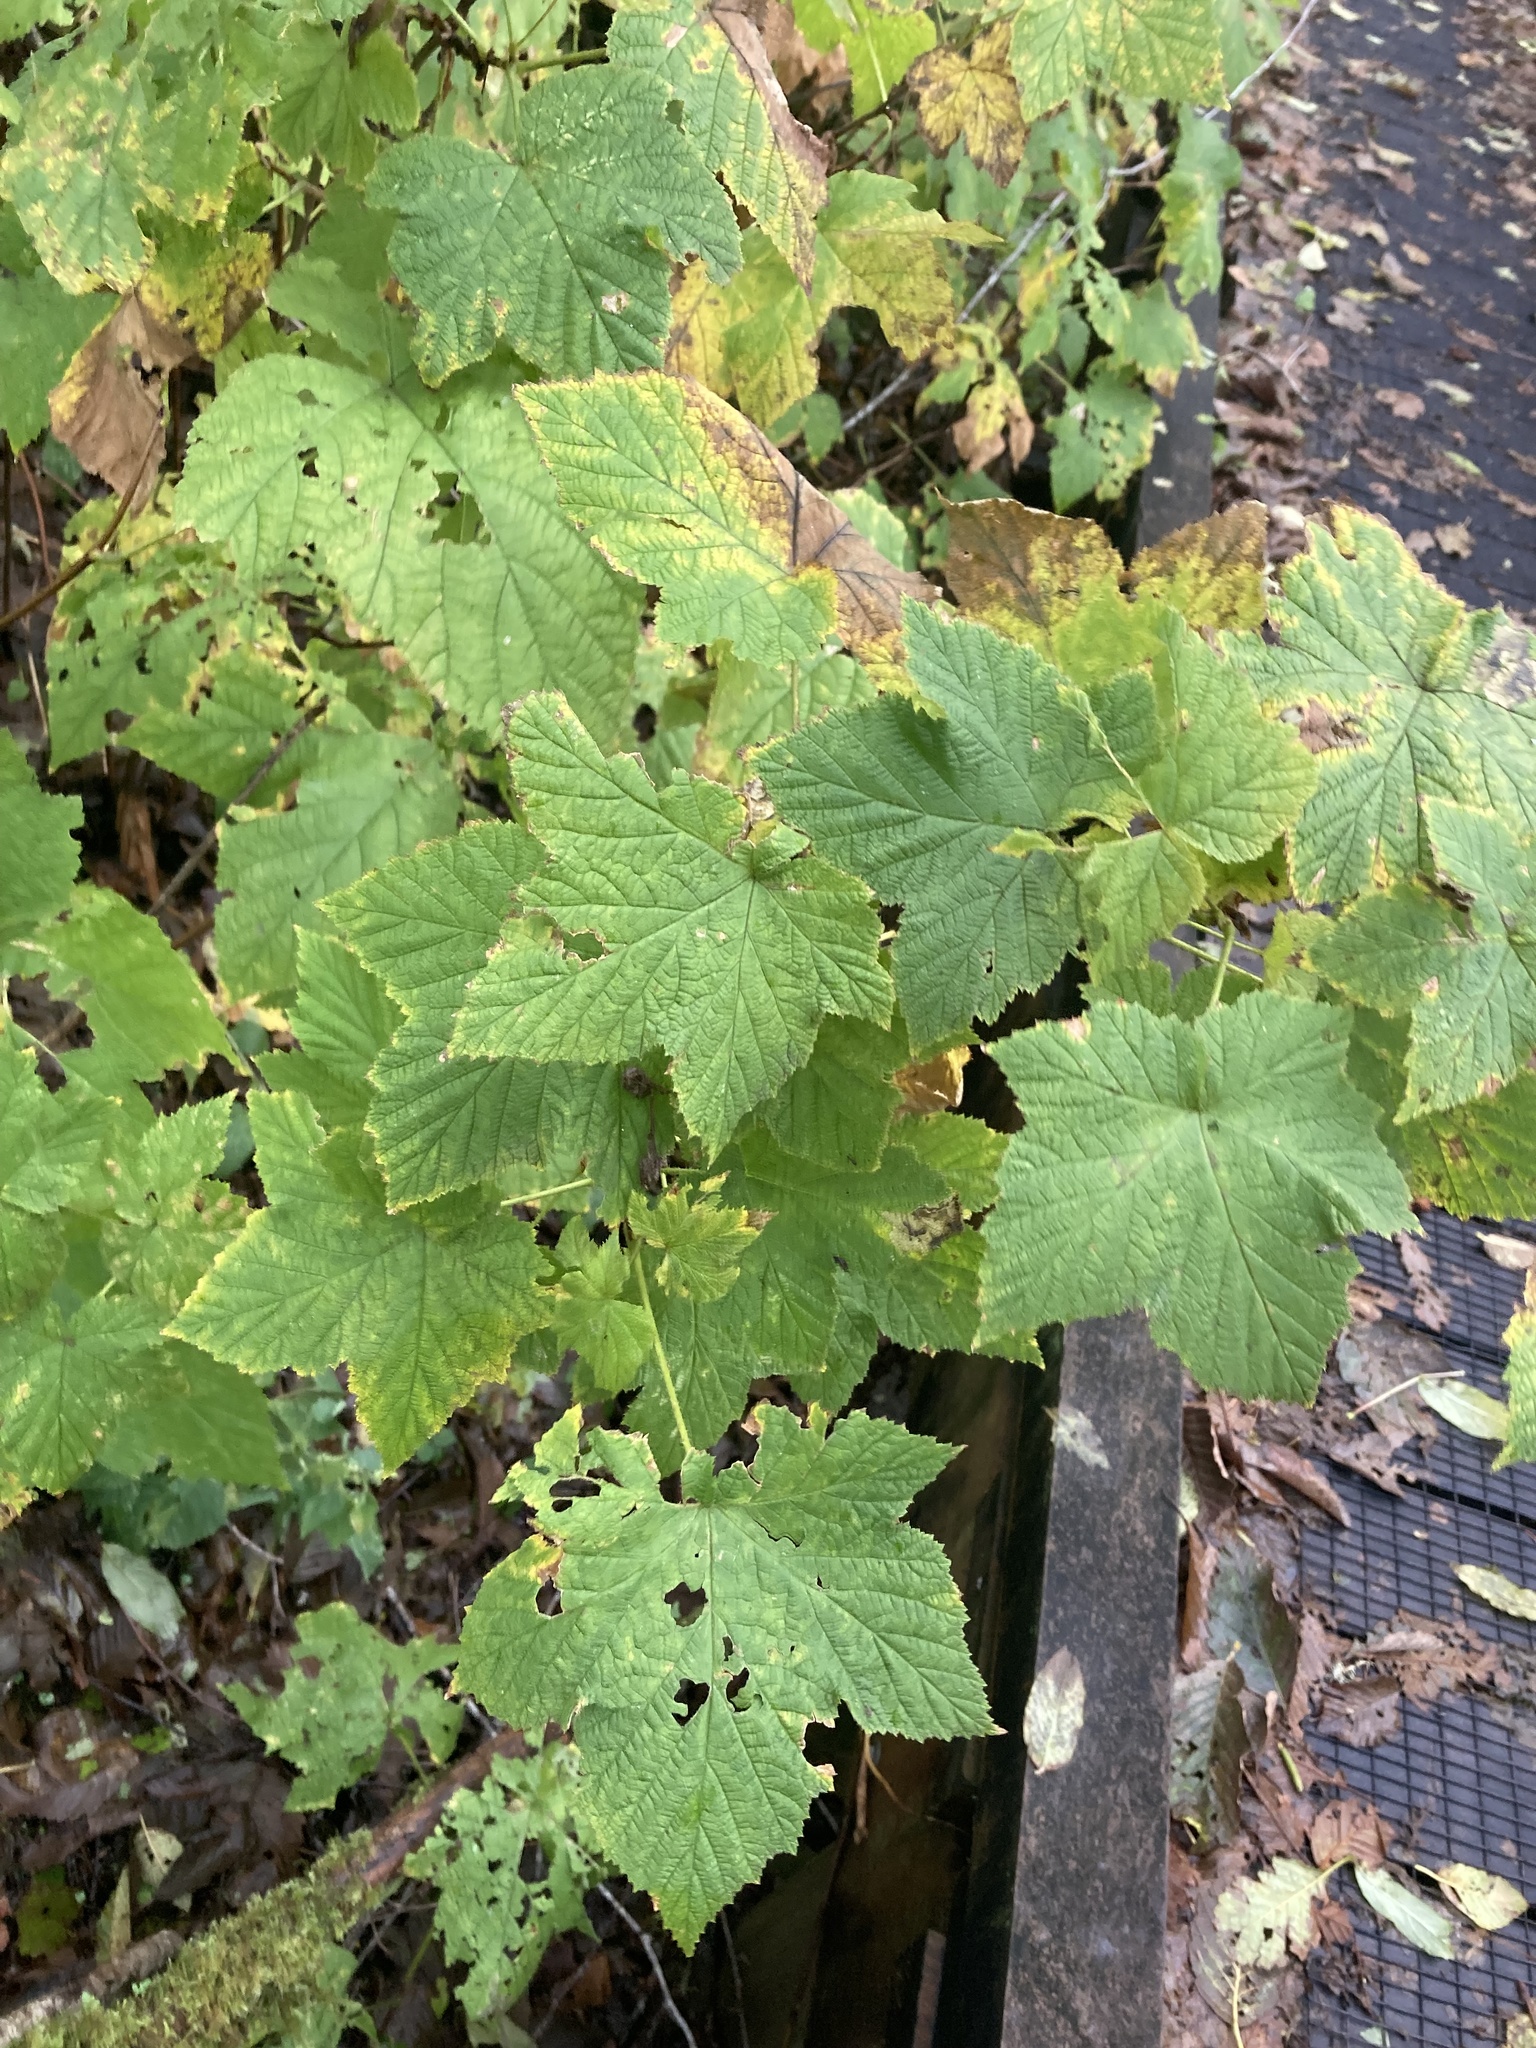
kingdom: Plantae
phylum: Tracheophyta
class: Magnoliopsida
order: Rosales
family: Rosaceae
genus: Rubus
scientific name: Rubus parviflorus
